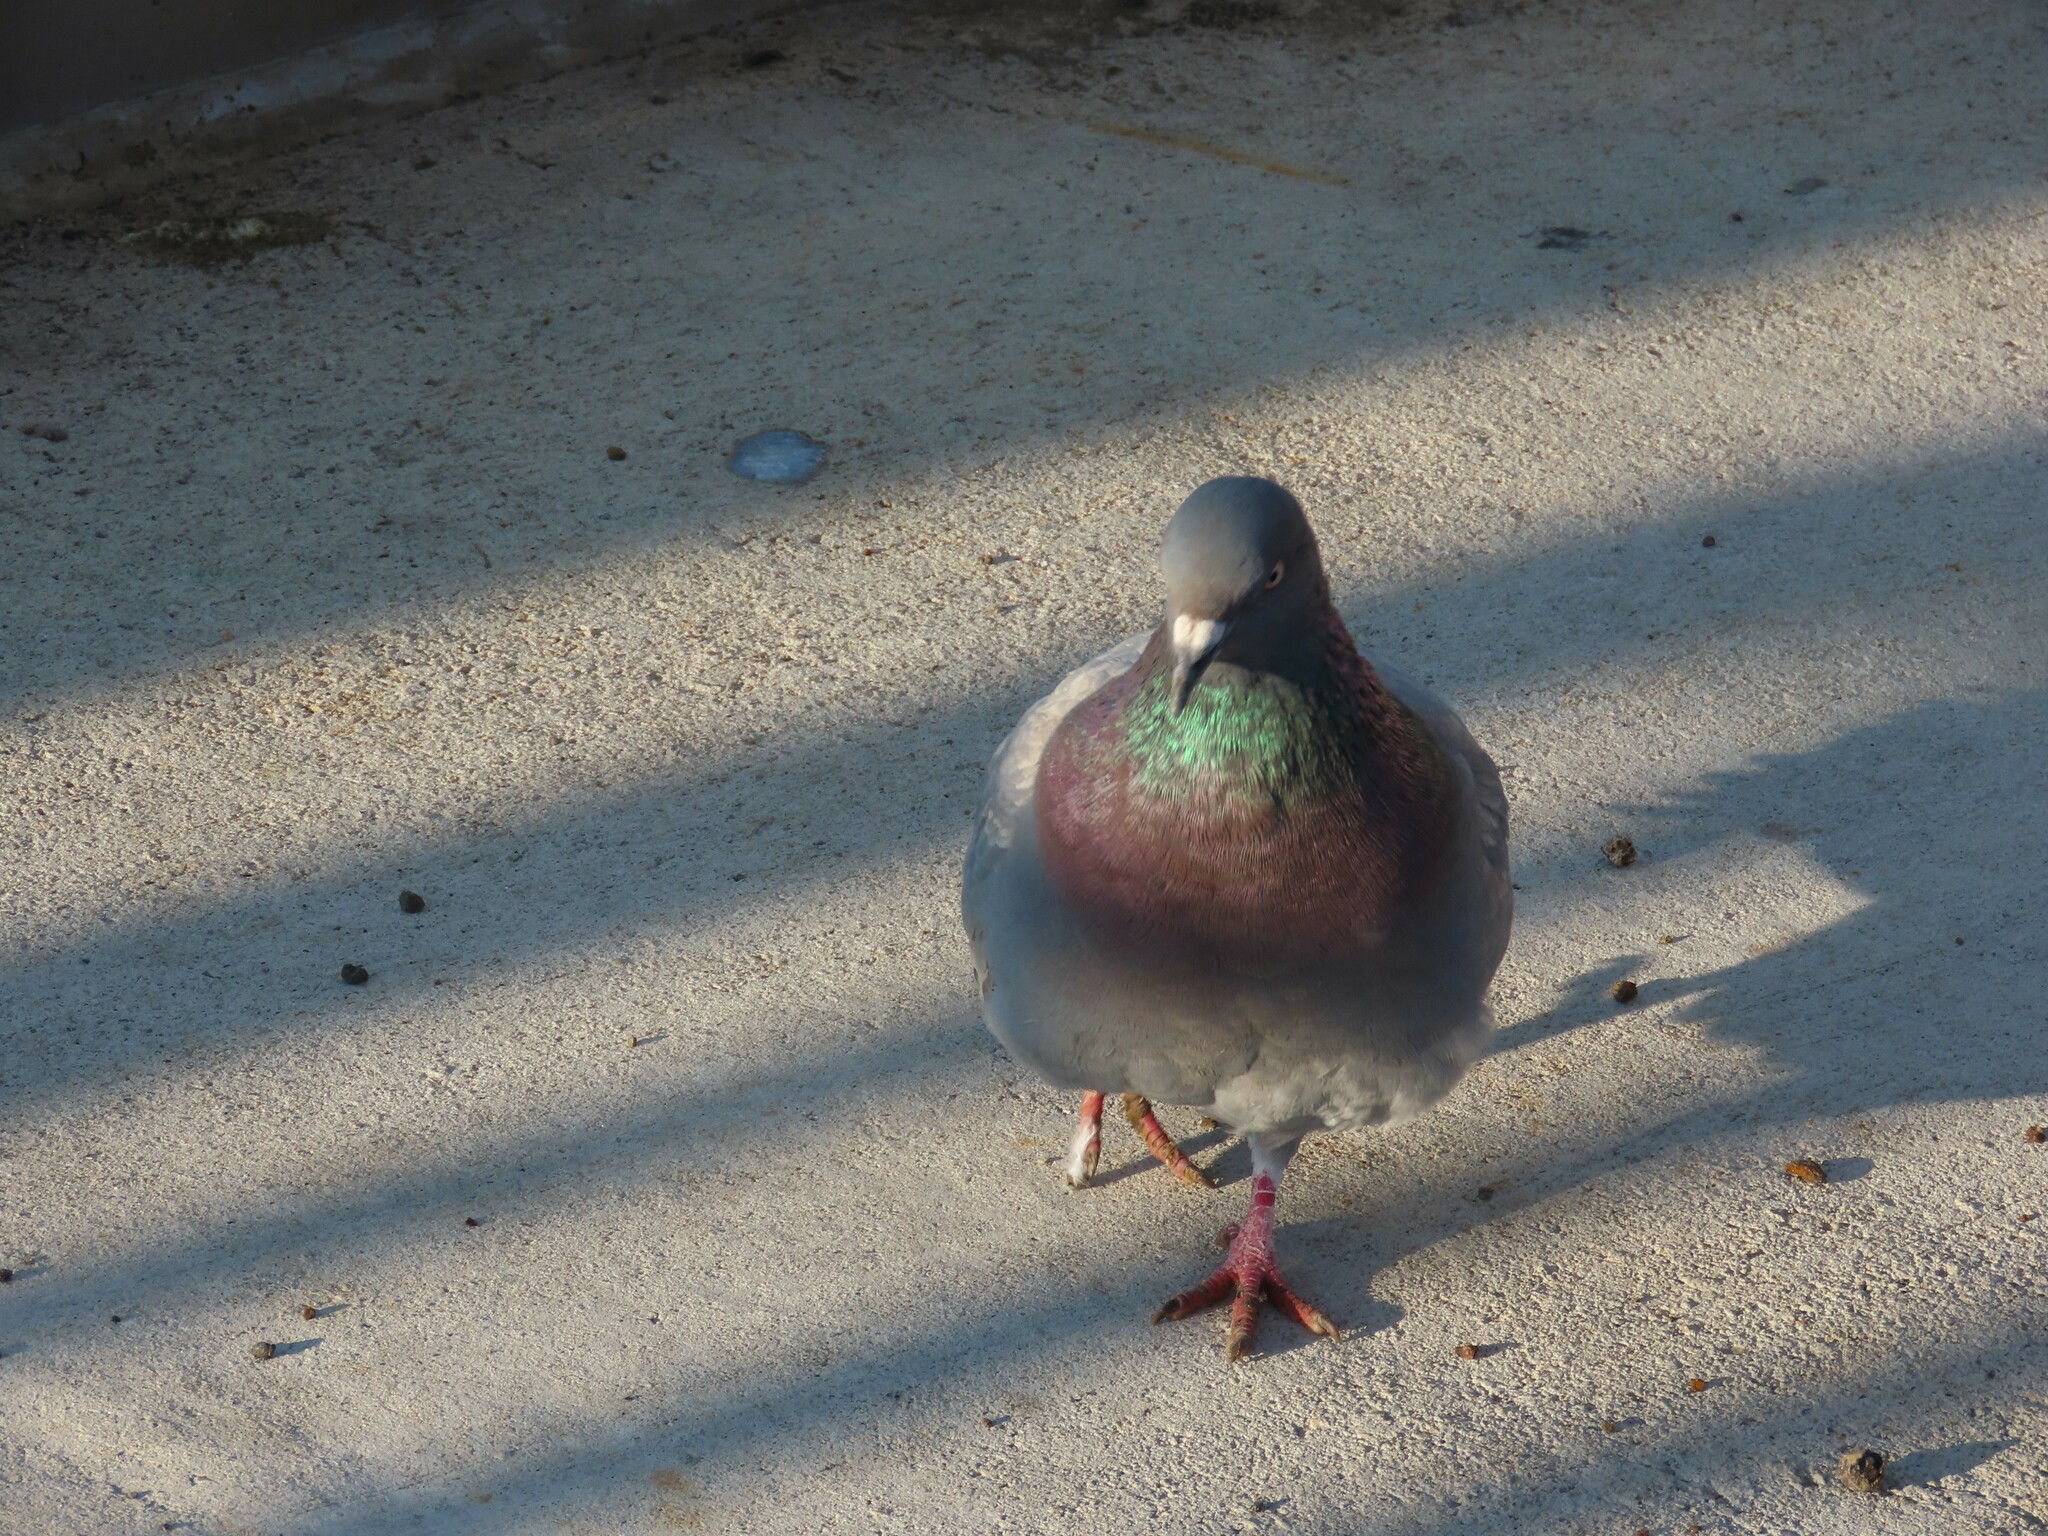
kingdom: Animalia
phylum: Chordata
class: Aves
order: Columbiformes
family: Columbidae
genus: Columba
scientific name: Columba livia
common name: Rock pigeon
